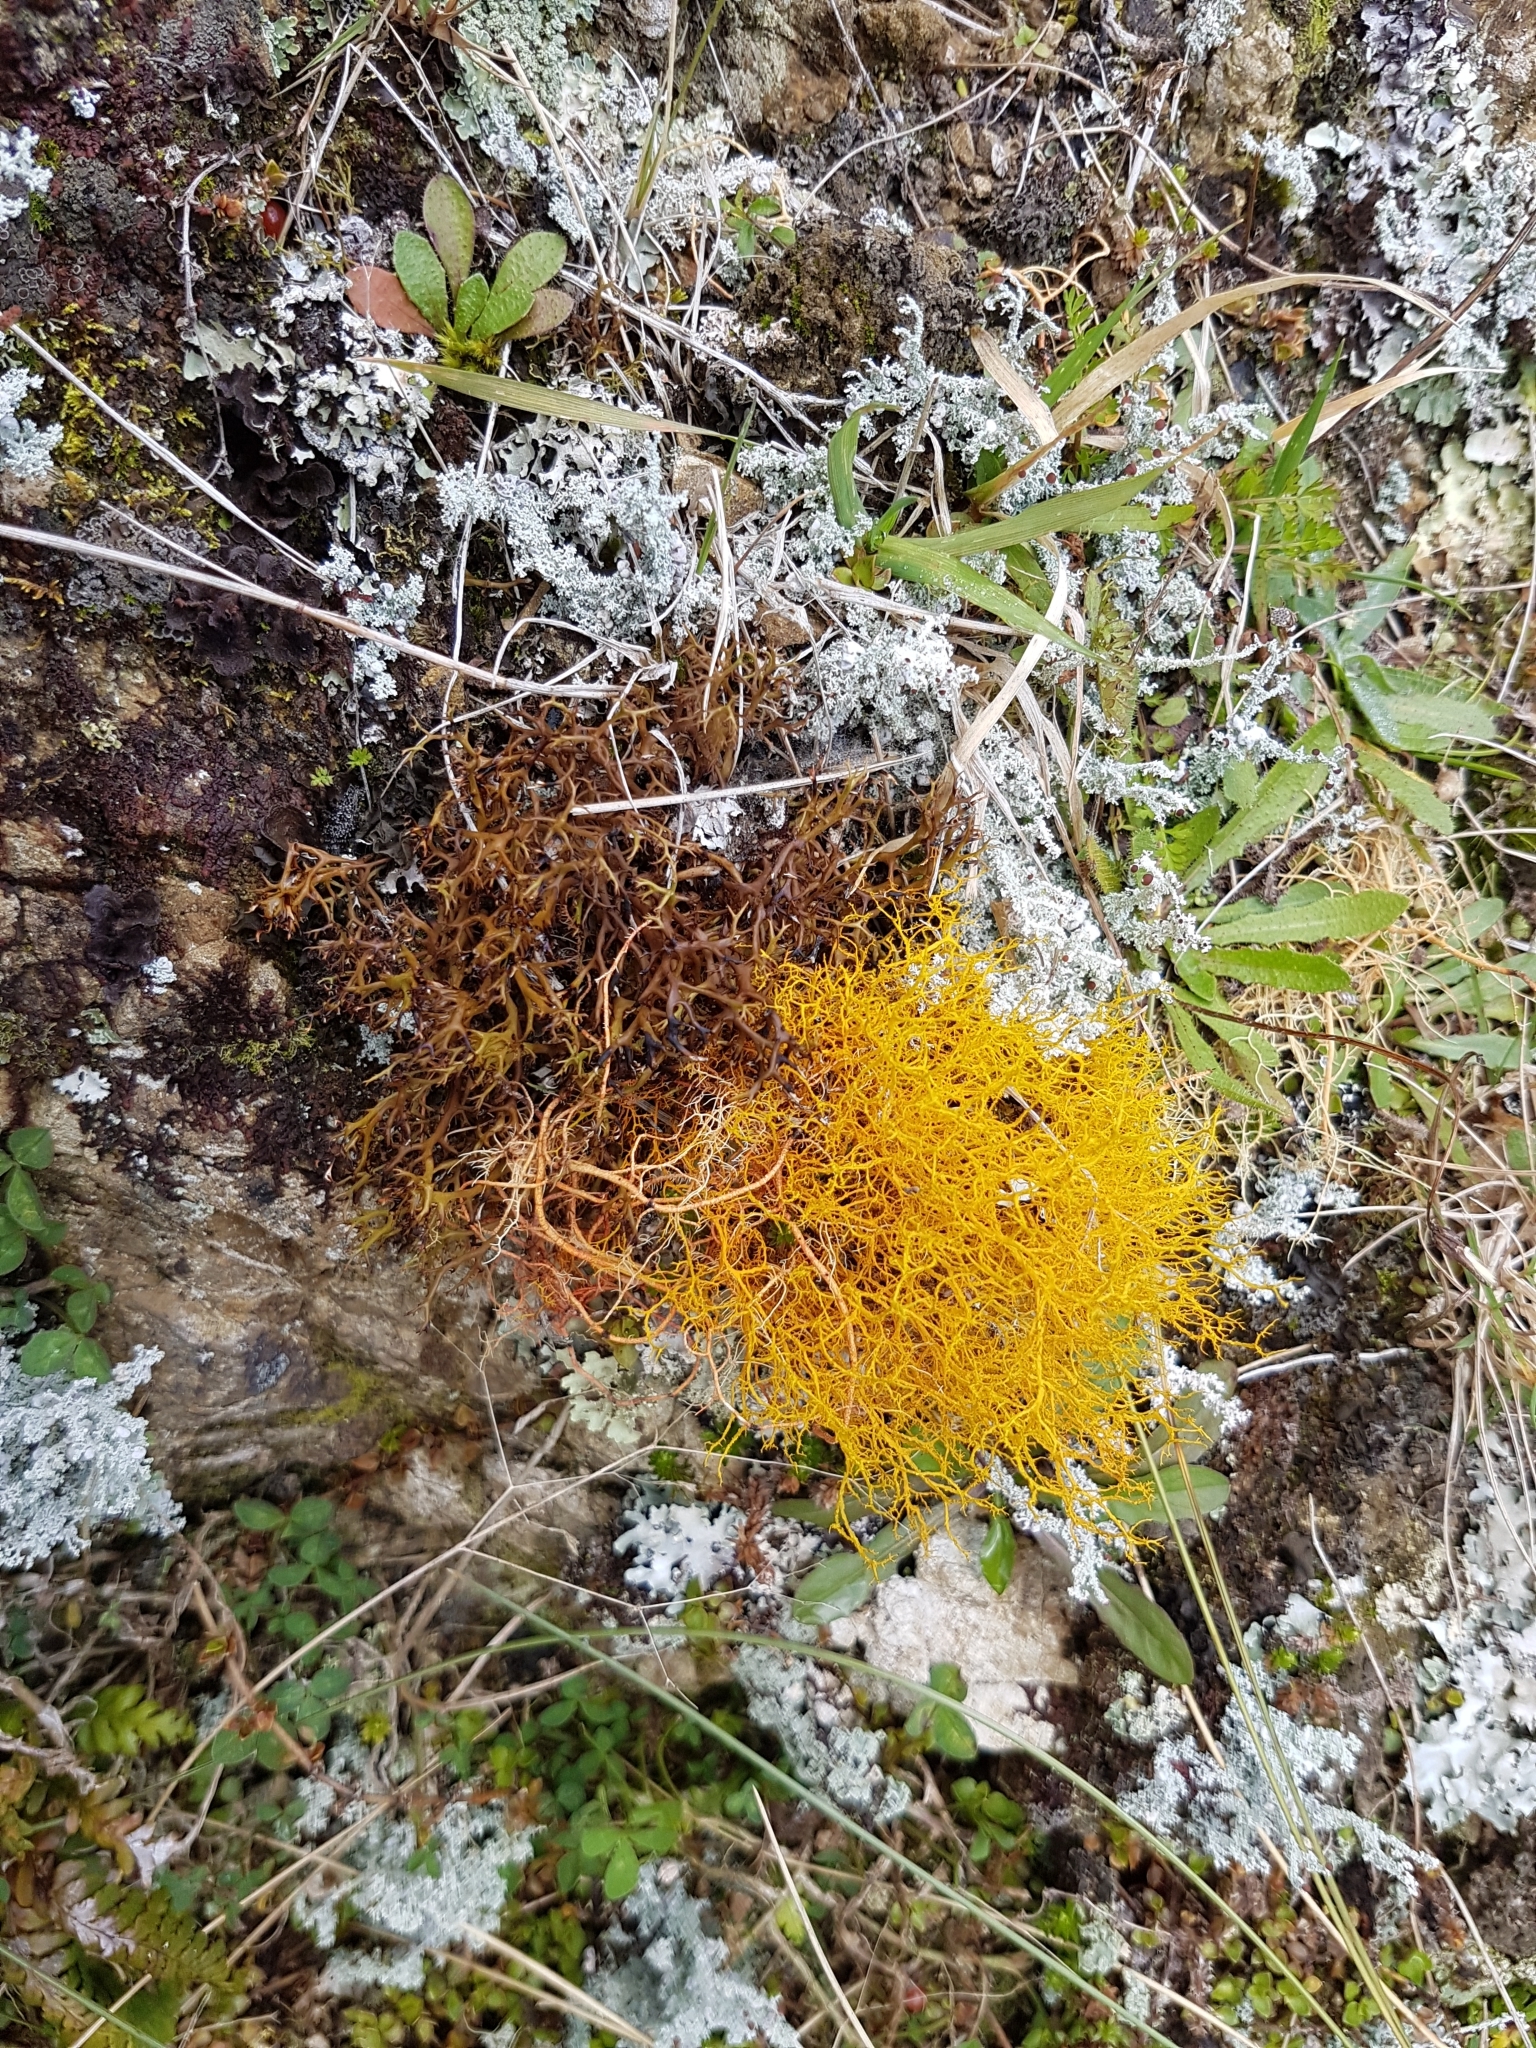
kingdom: Fungi
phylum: Ascomycota
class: Lecanoromycetes
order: Teloschistales
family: Teloschistaceae
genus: Teloschistes
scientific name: Teloschistes flavicans
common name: Golden hair-lichen
